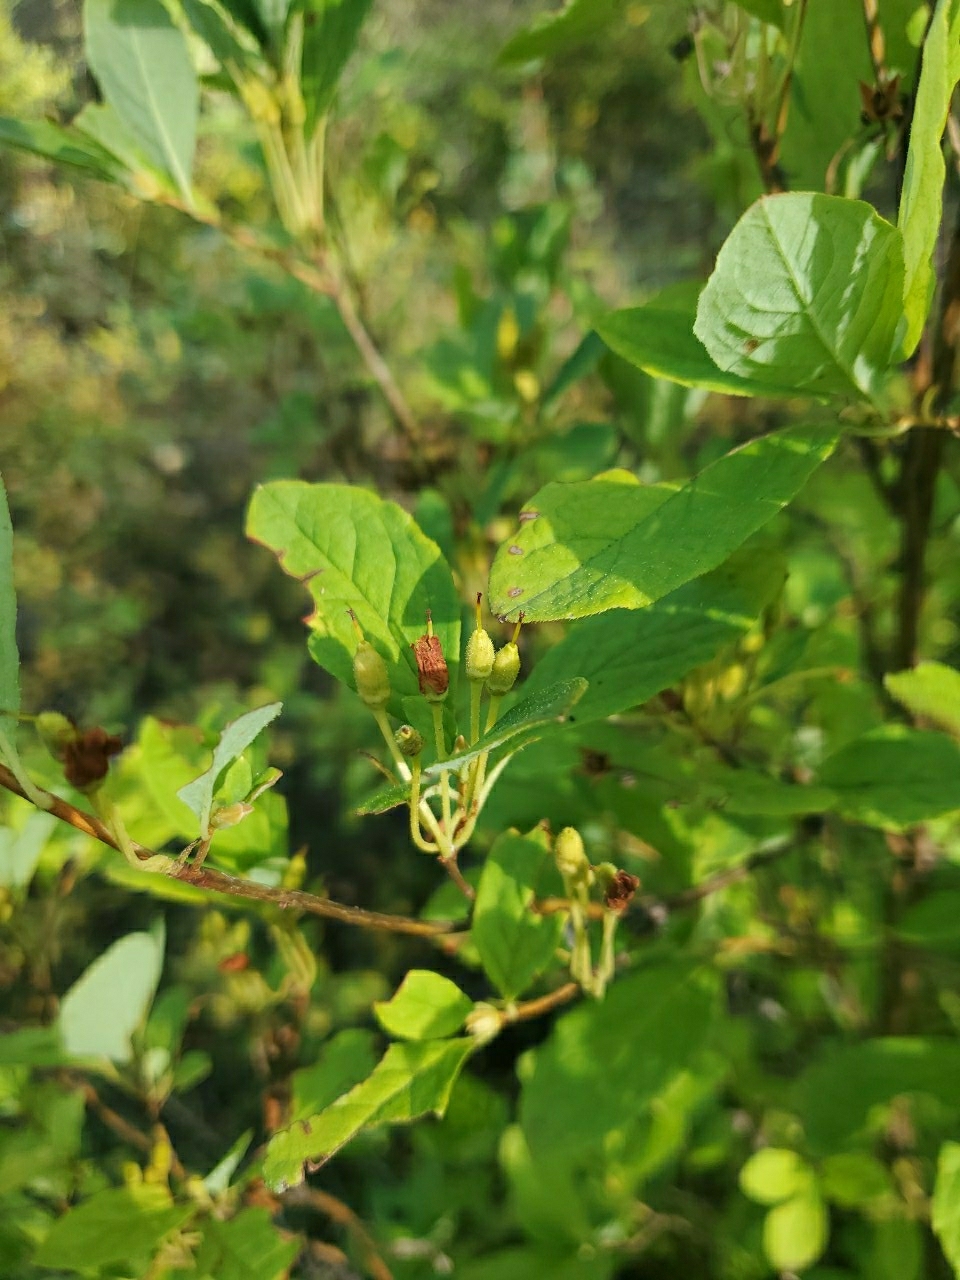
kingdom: Plantae
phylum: Tracheophyta
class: Magnoliopsida
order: Ericales
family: Ericaceae
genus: Rhododendron
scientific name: Rhododendron menziesii
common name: Pacific menziesia
